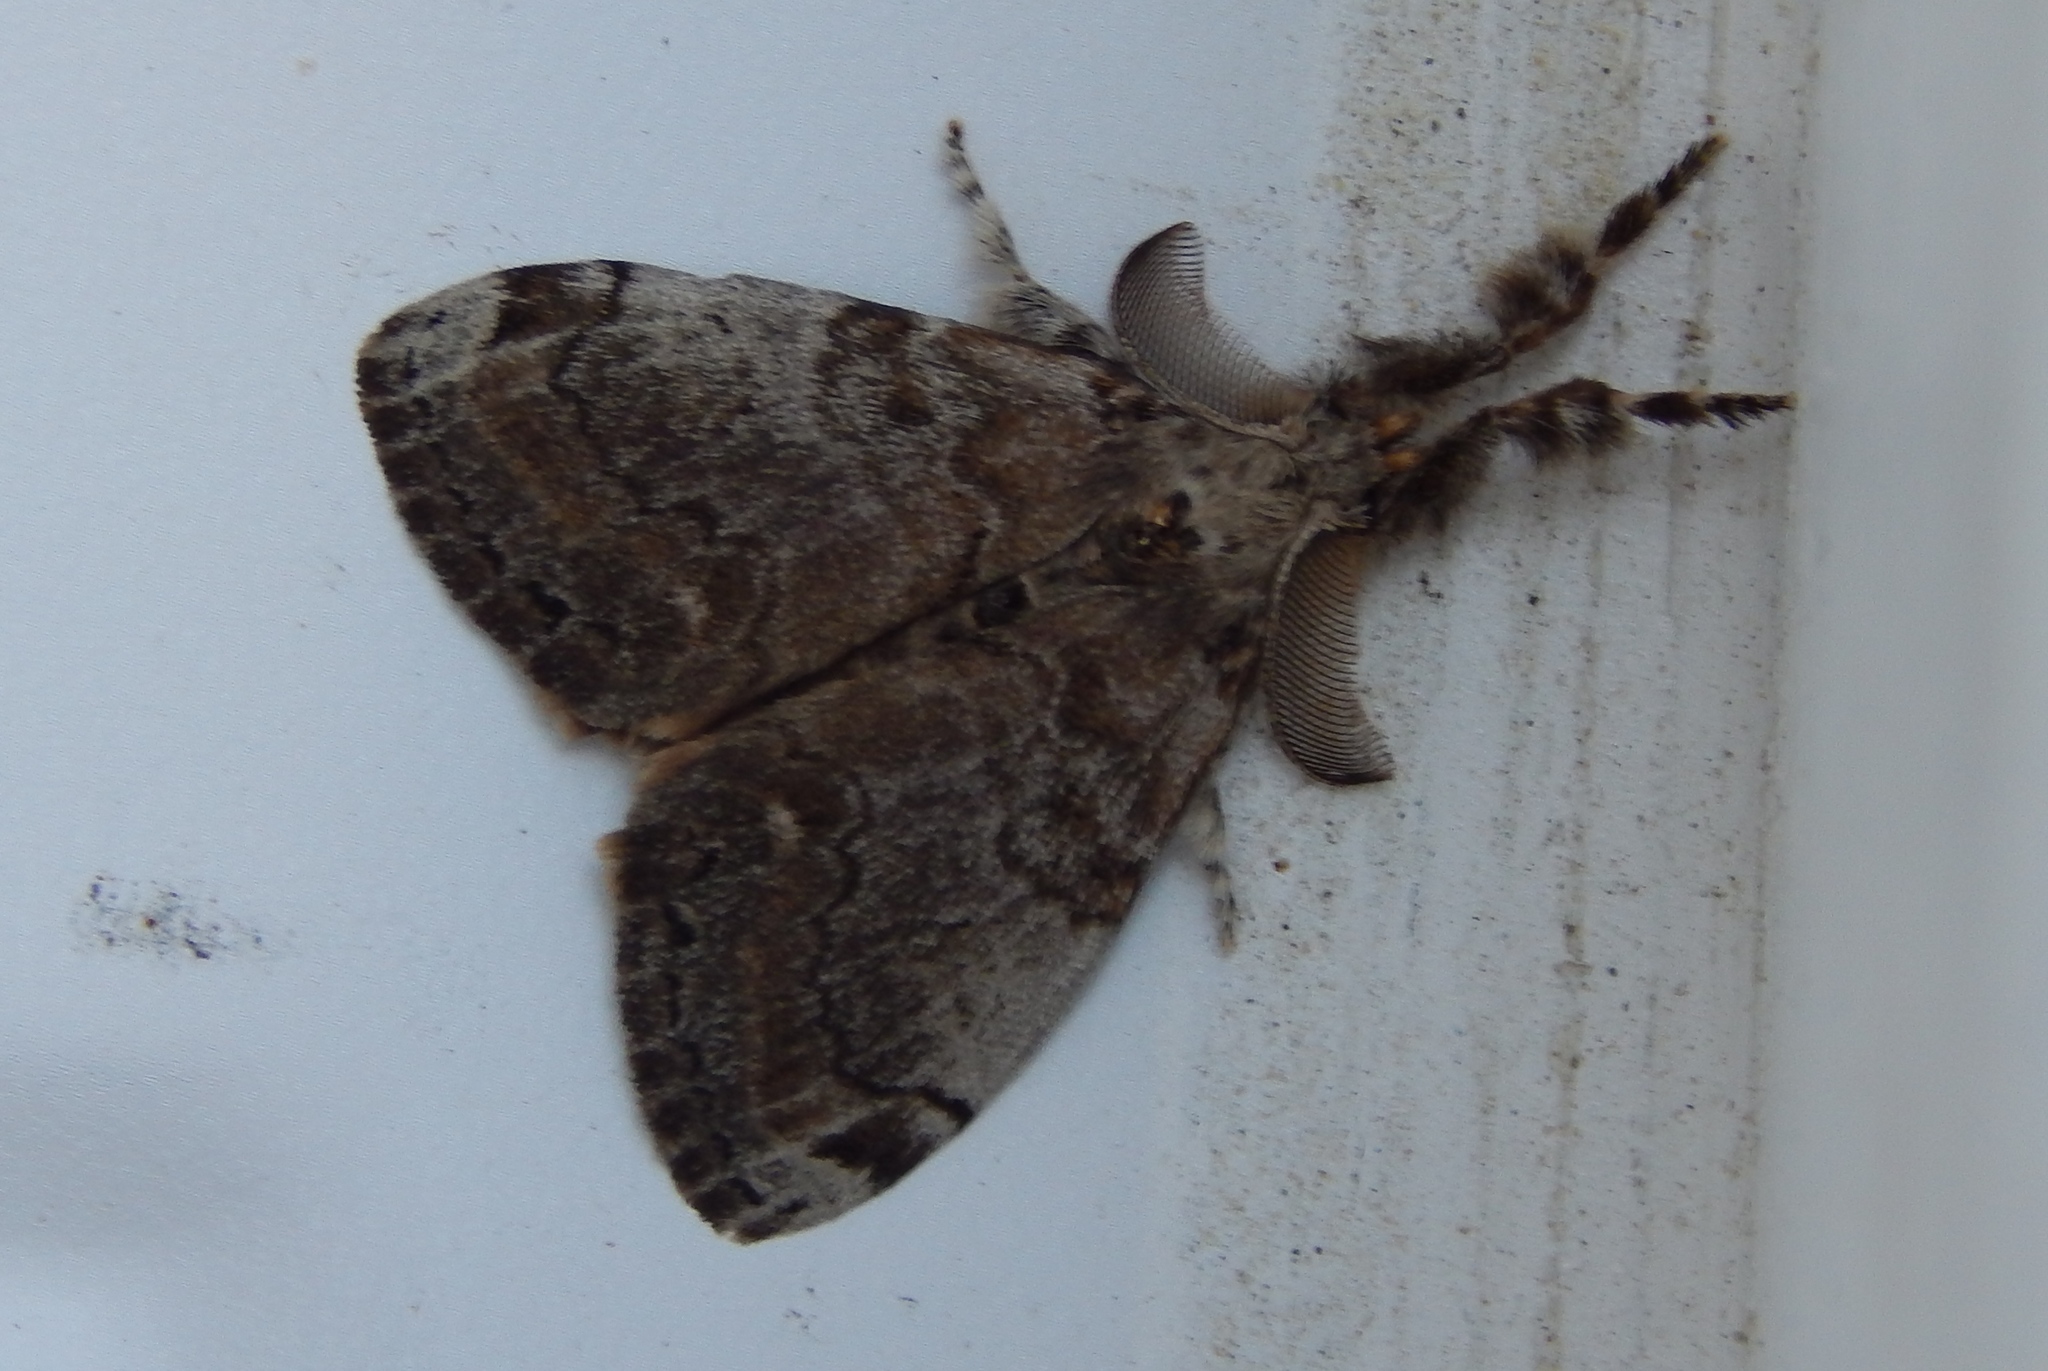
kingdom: Animalia
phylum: Arthropoda
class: Insecta
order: Lepidoptera
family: Erebidae
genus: Orgyia
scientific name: Orgyia leucostigma
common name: White-marked tussock moth
